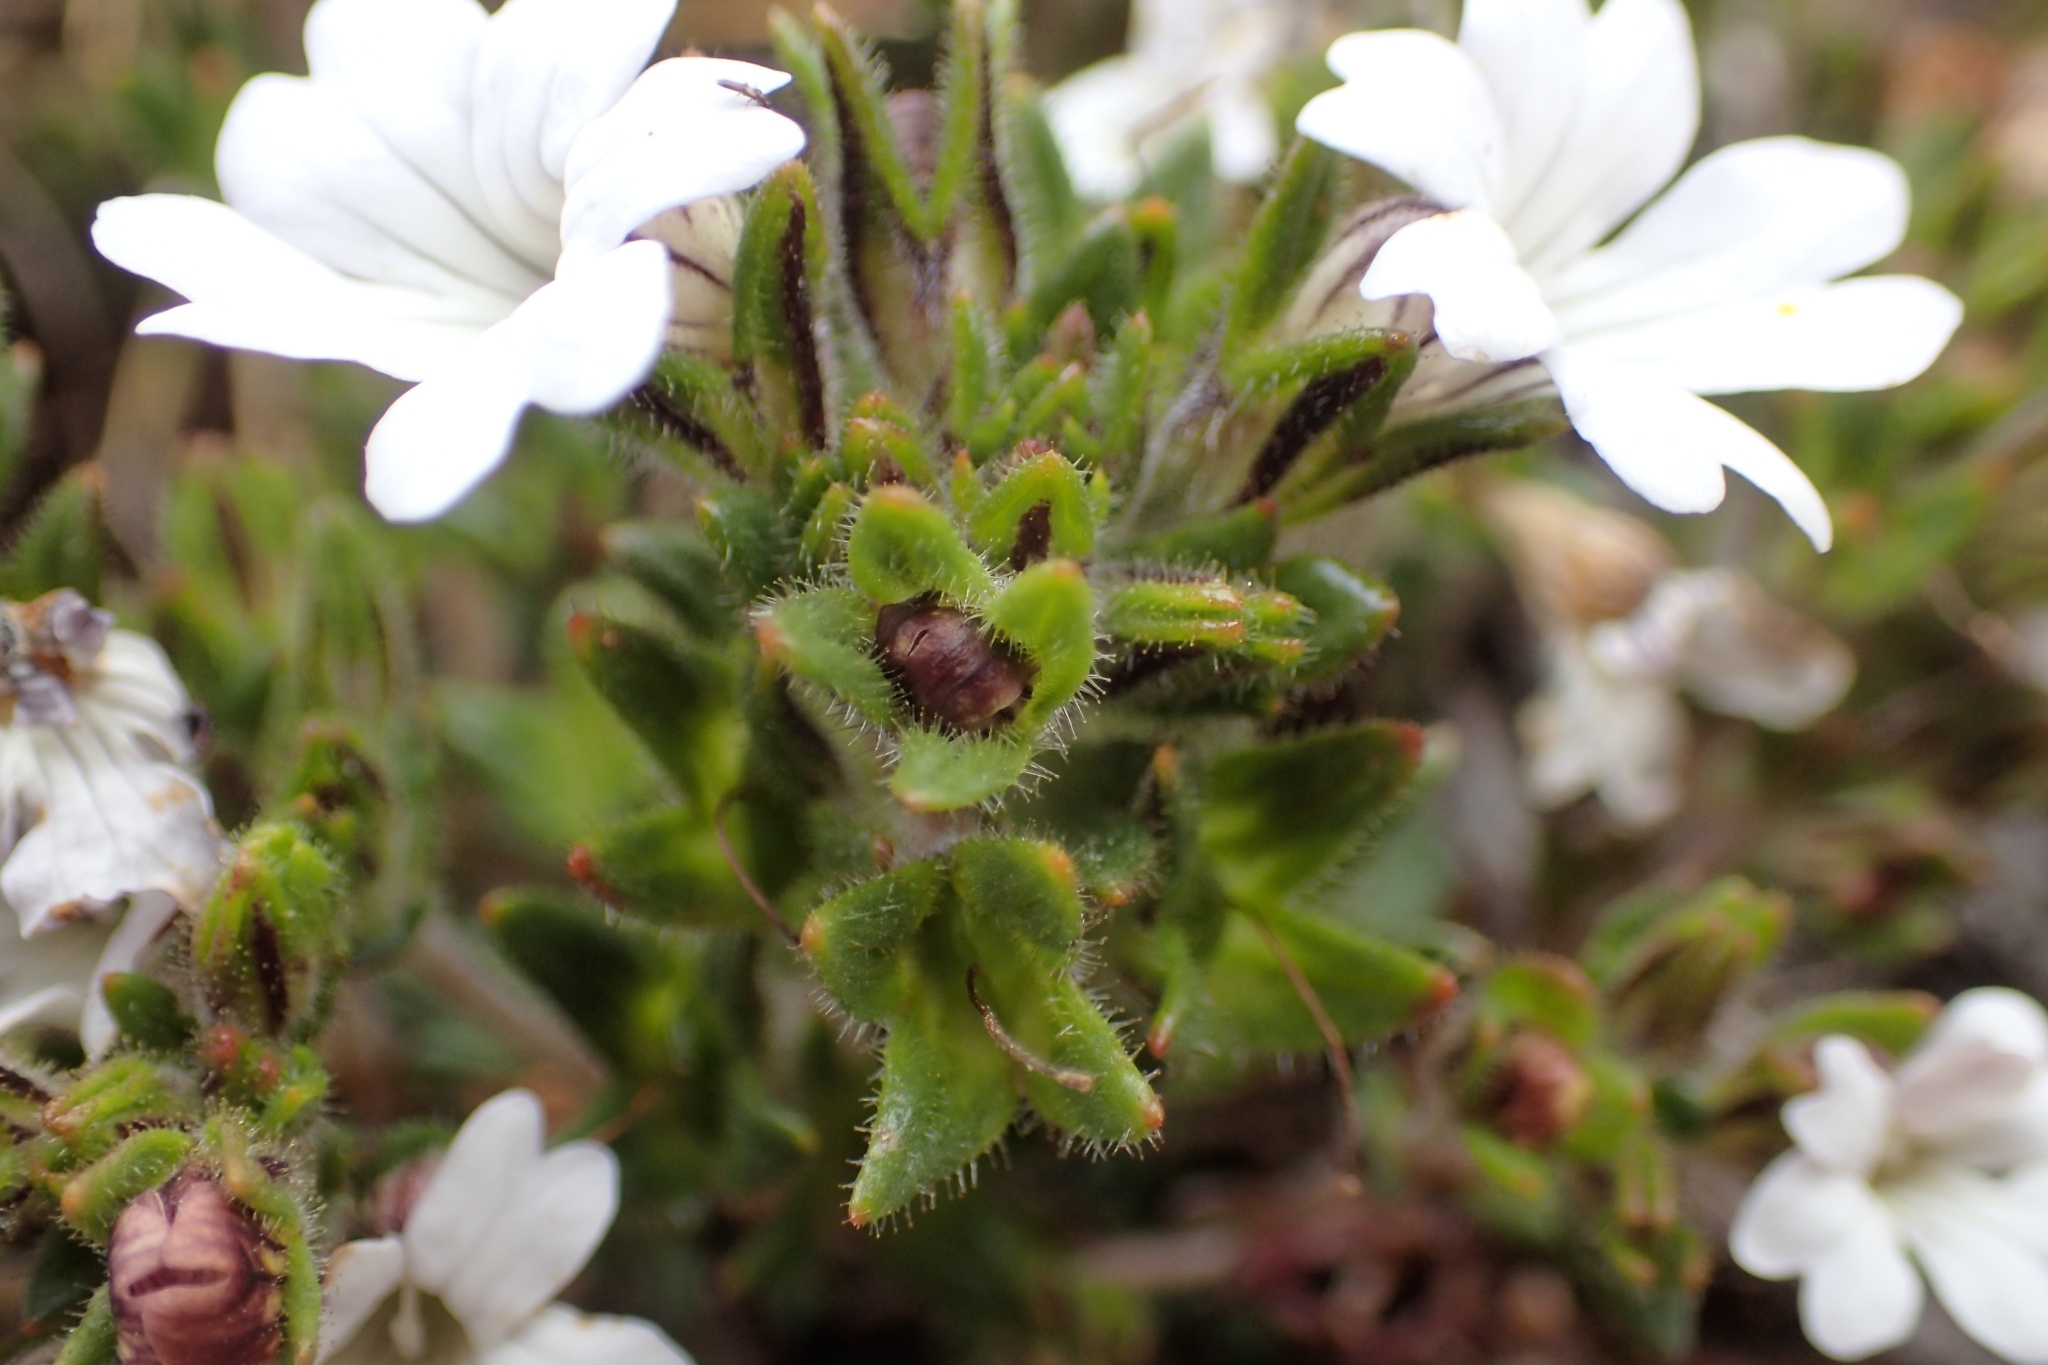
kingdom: Plantae
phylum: Tracheophyta
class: Magnoliopsida
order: Lamiales
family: Orobanchaceae
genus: Euphrasia
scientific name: Euphrasia townsonii
